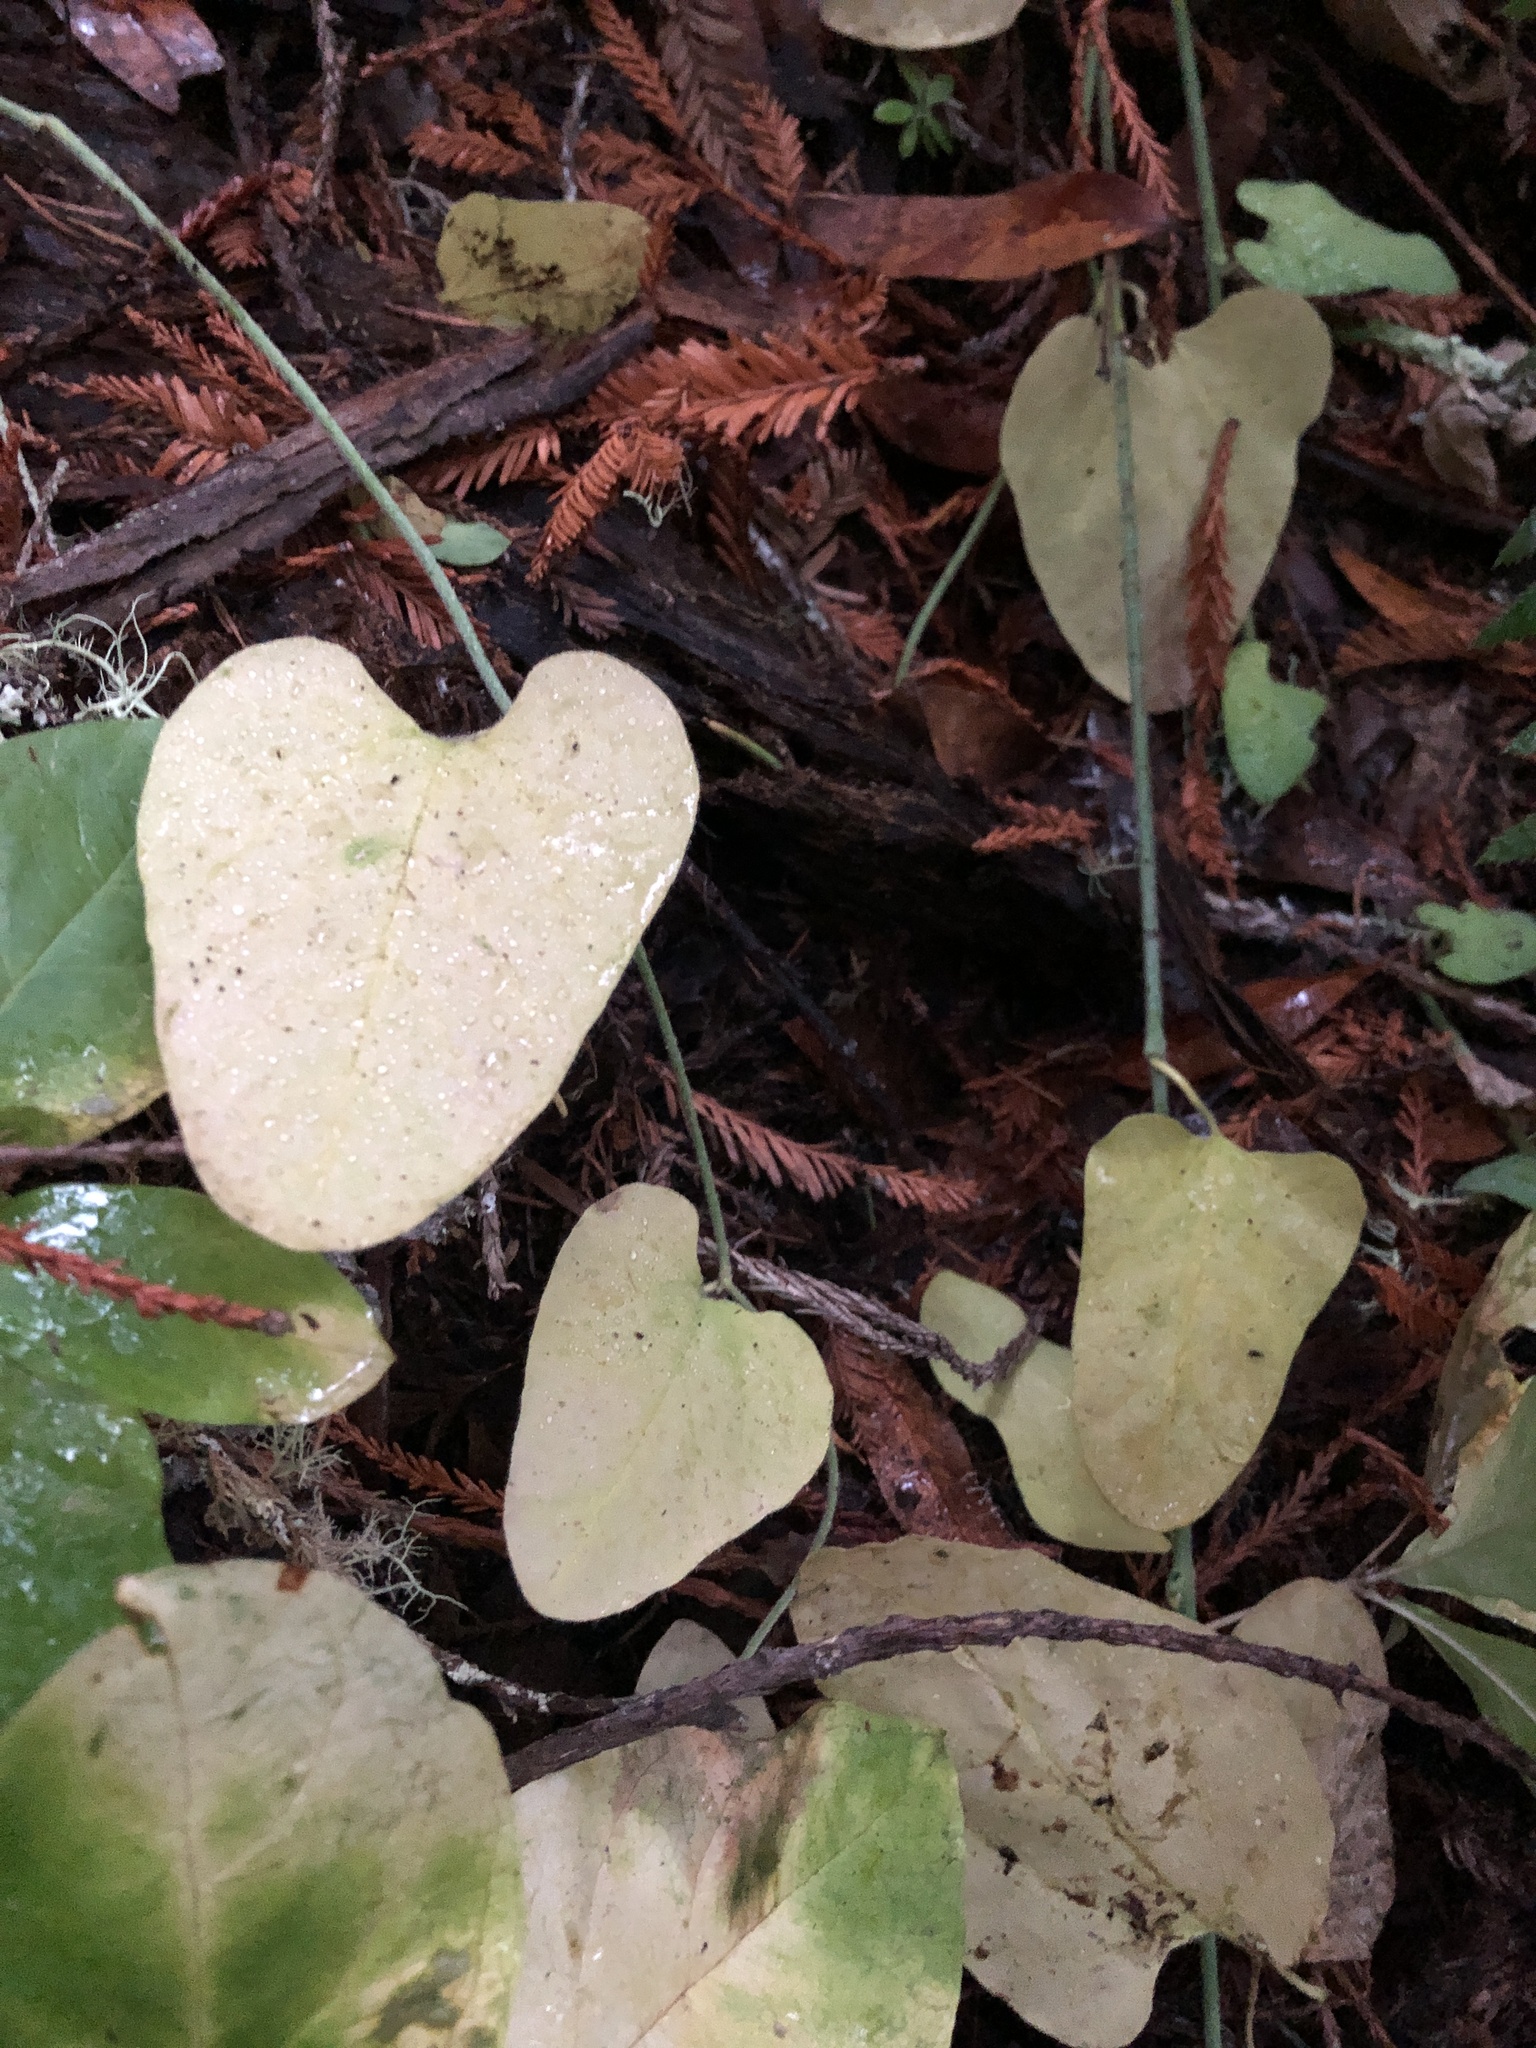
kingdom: Plantae
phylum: Tracheophyta
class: Magnoliopsida
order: Piperales
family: Aristolochiaceae
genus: Isotrema
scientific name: Isotrema californicum
